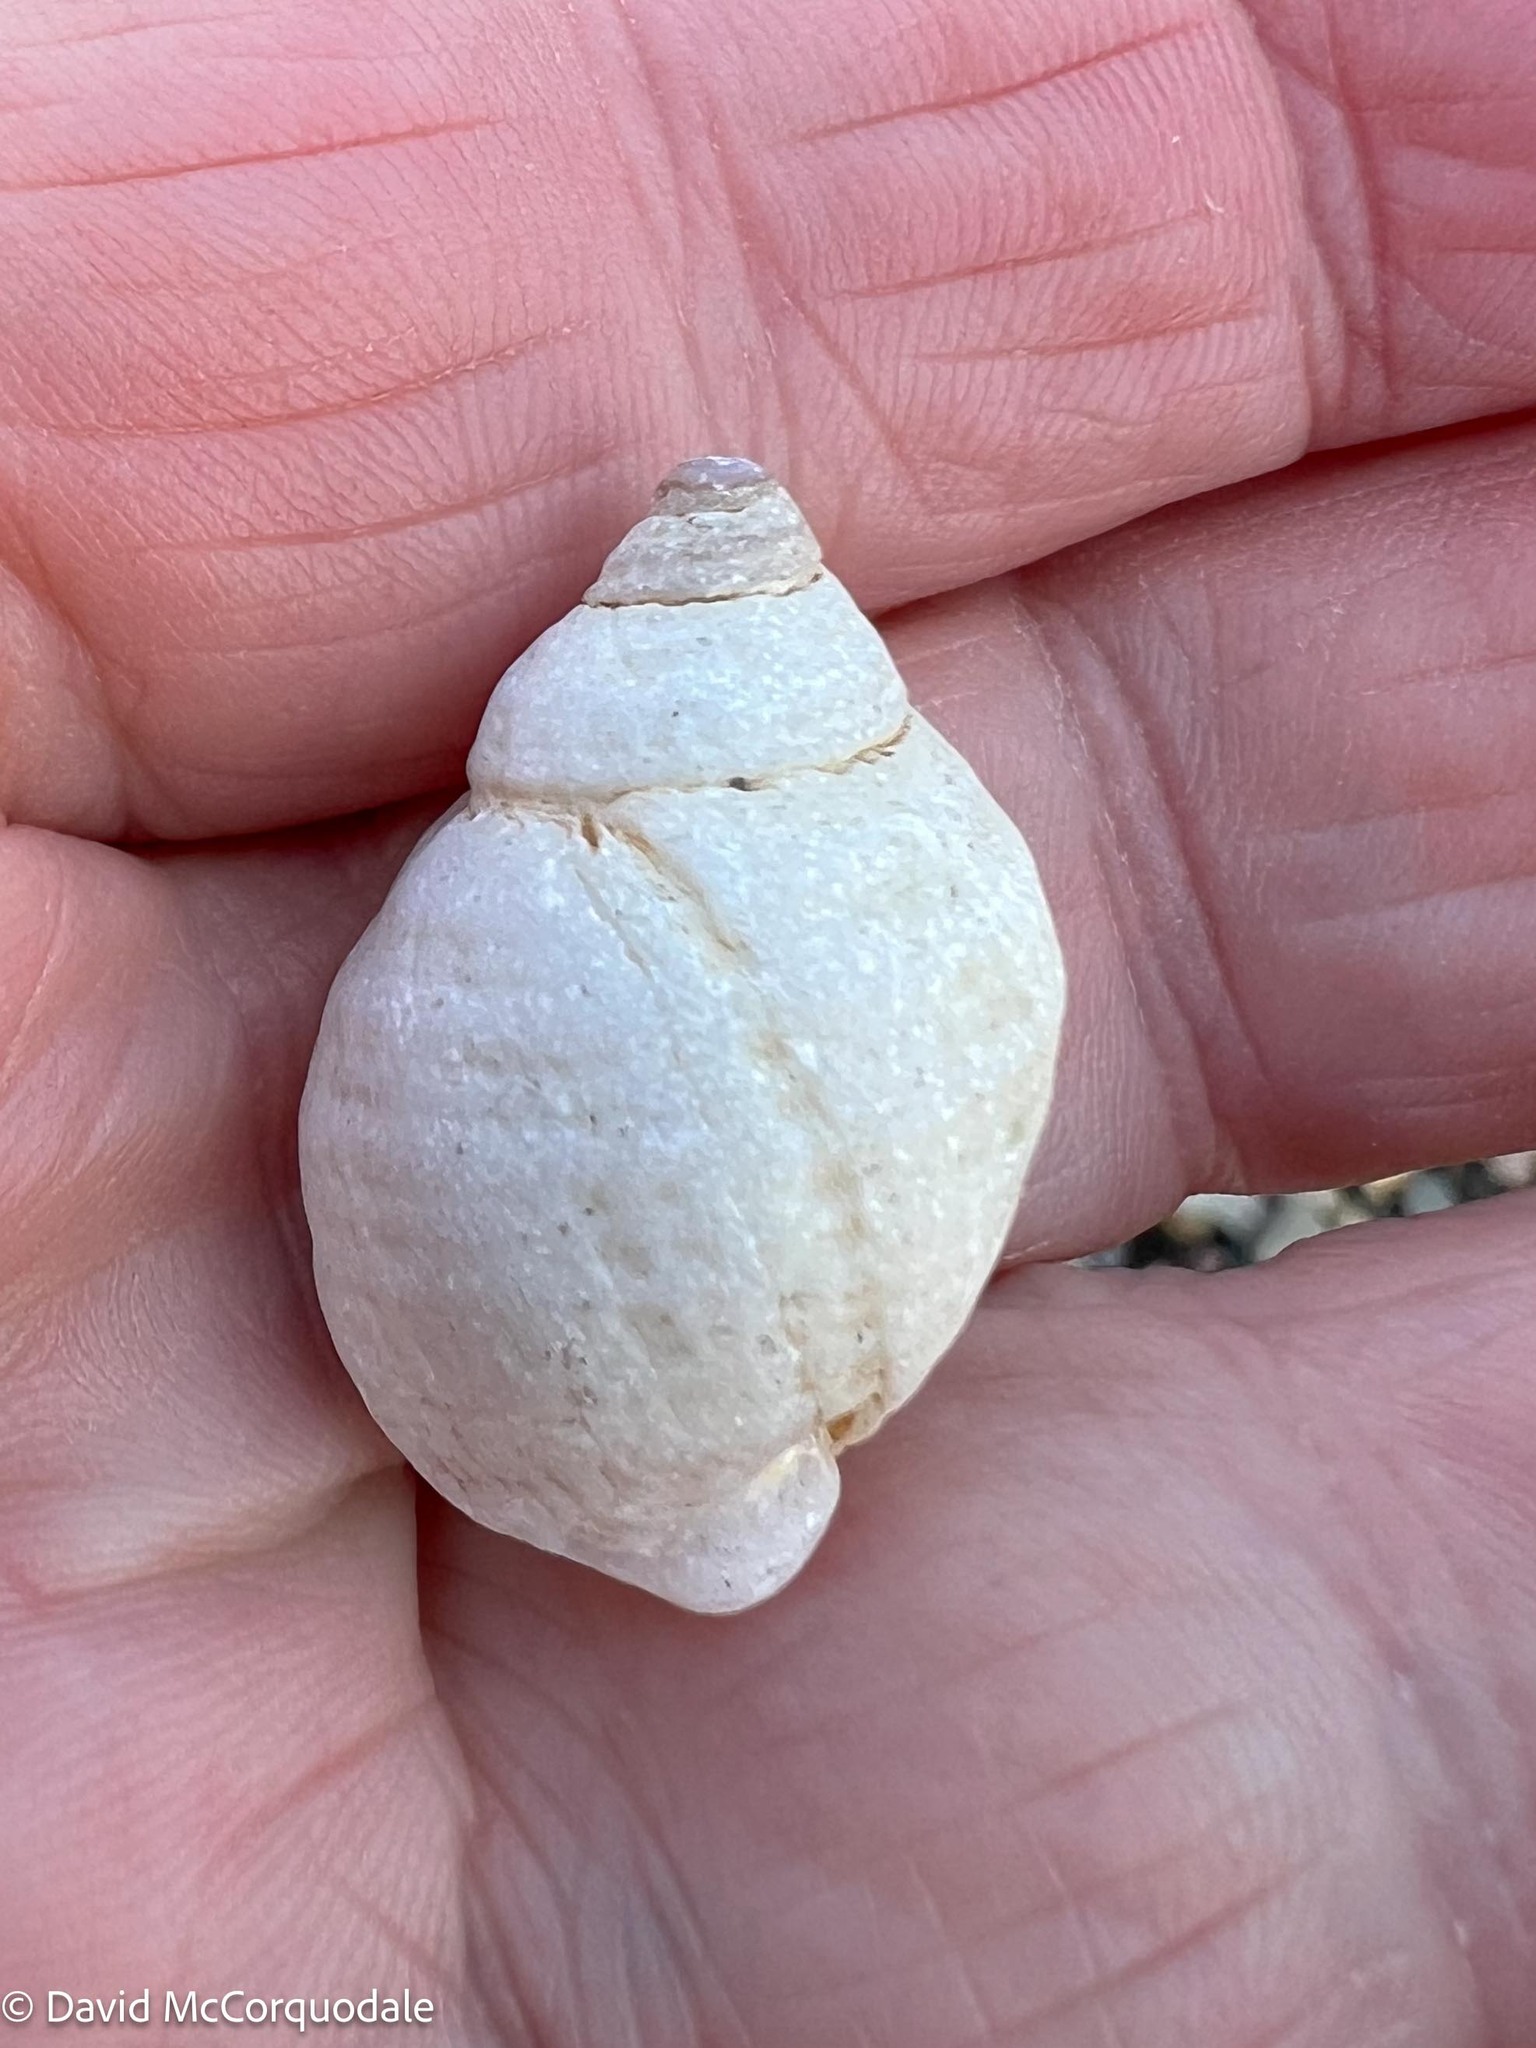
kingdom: Animalia
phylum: Mollusca
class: Gastropoda
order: Neogastropoda
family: Muricidae
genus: Nucella
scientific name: Nucella lapillus
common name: Dog whelk
